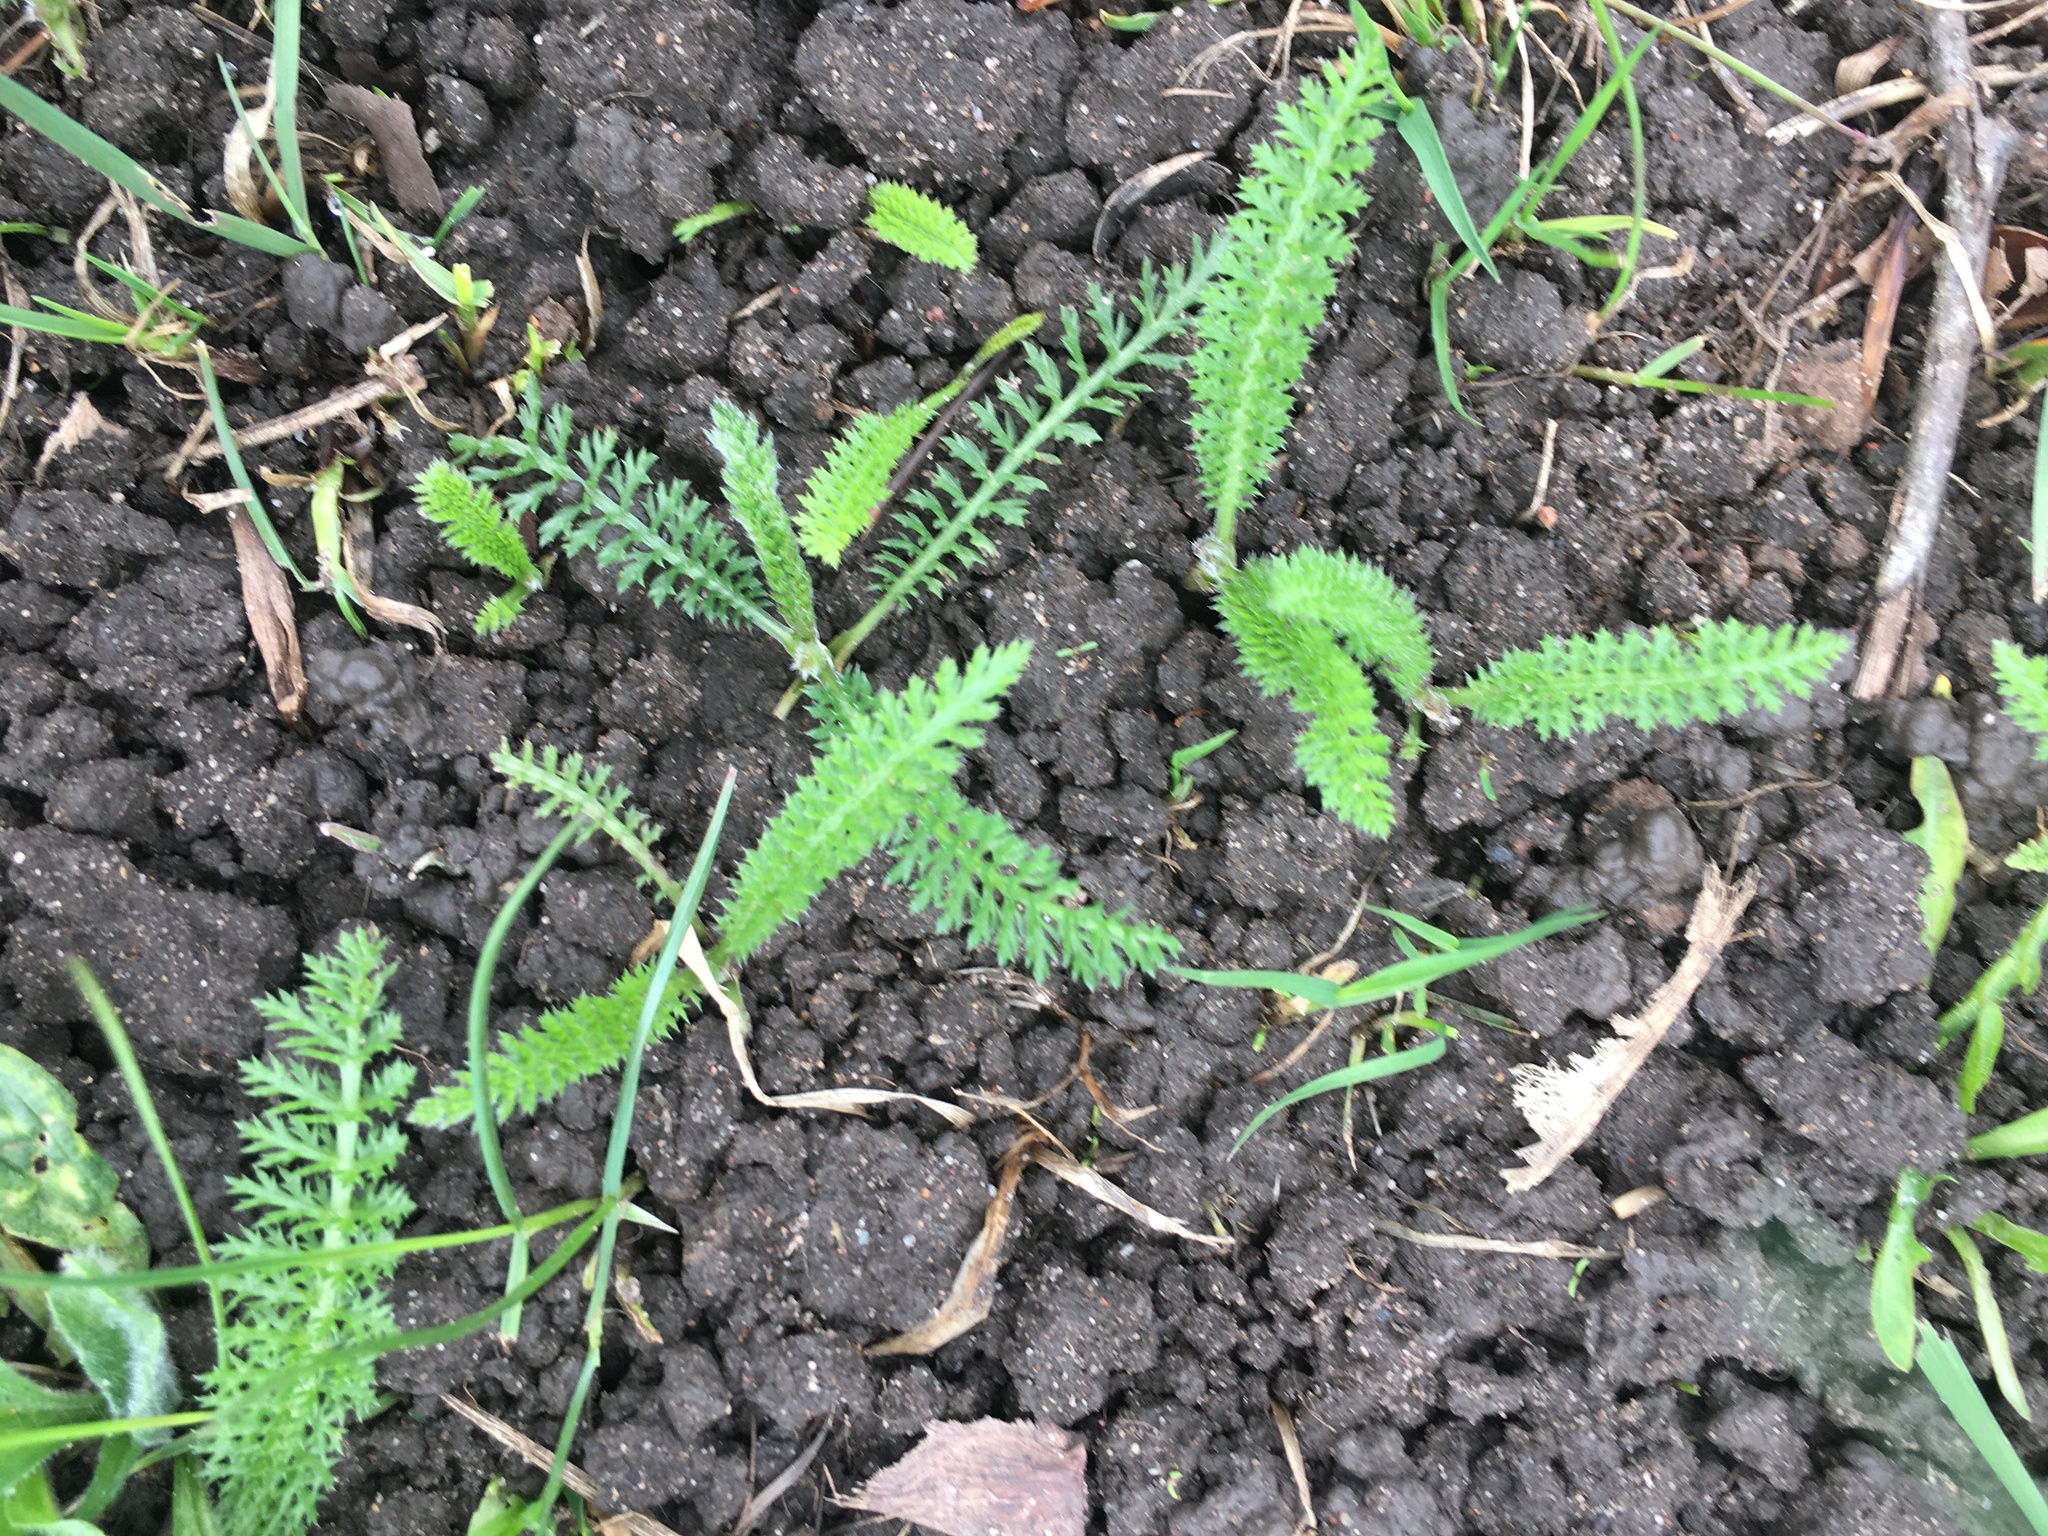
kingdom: Plantae
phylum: Tracheophyta
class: Magnoliopsida
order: Asterales
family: Asteraceae
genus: Achillea
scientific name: Achillea millefolium
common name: Yarrow
